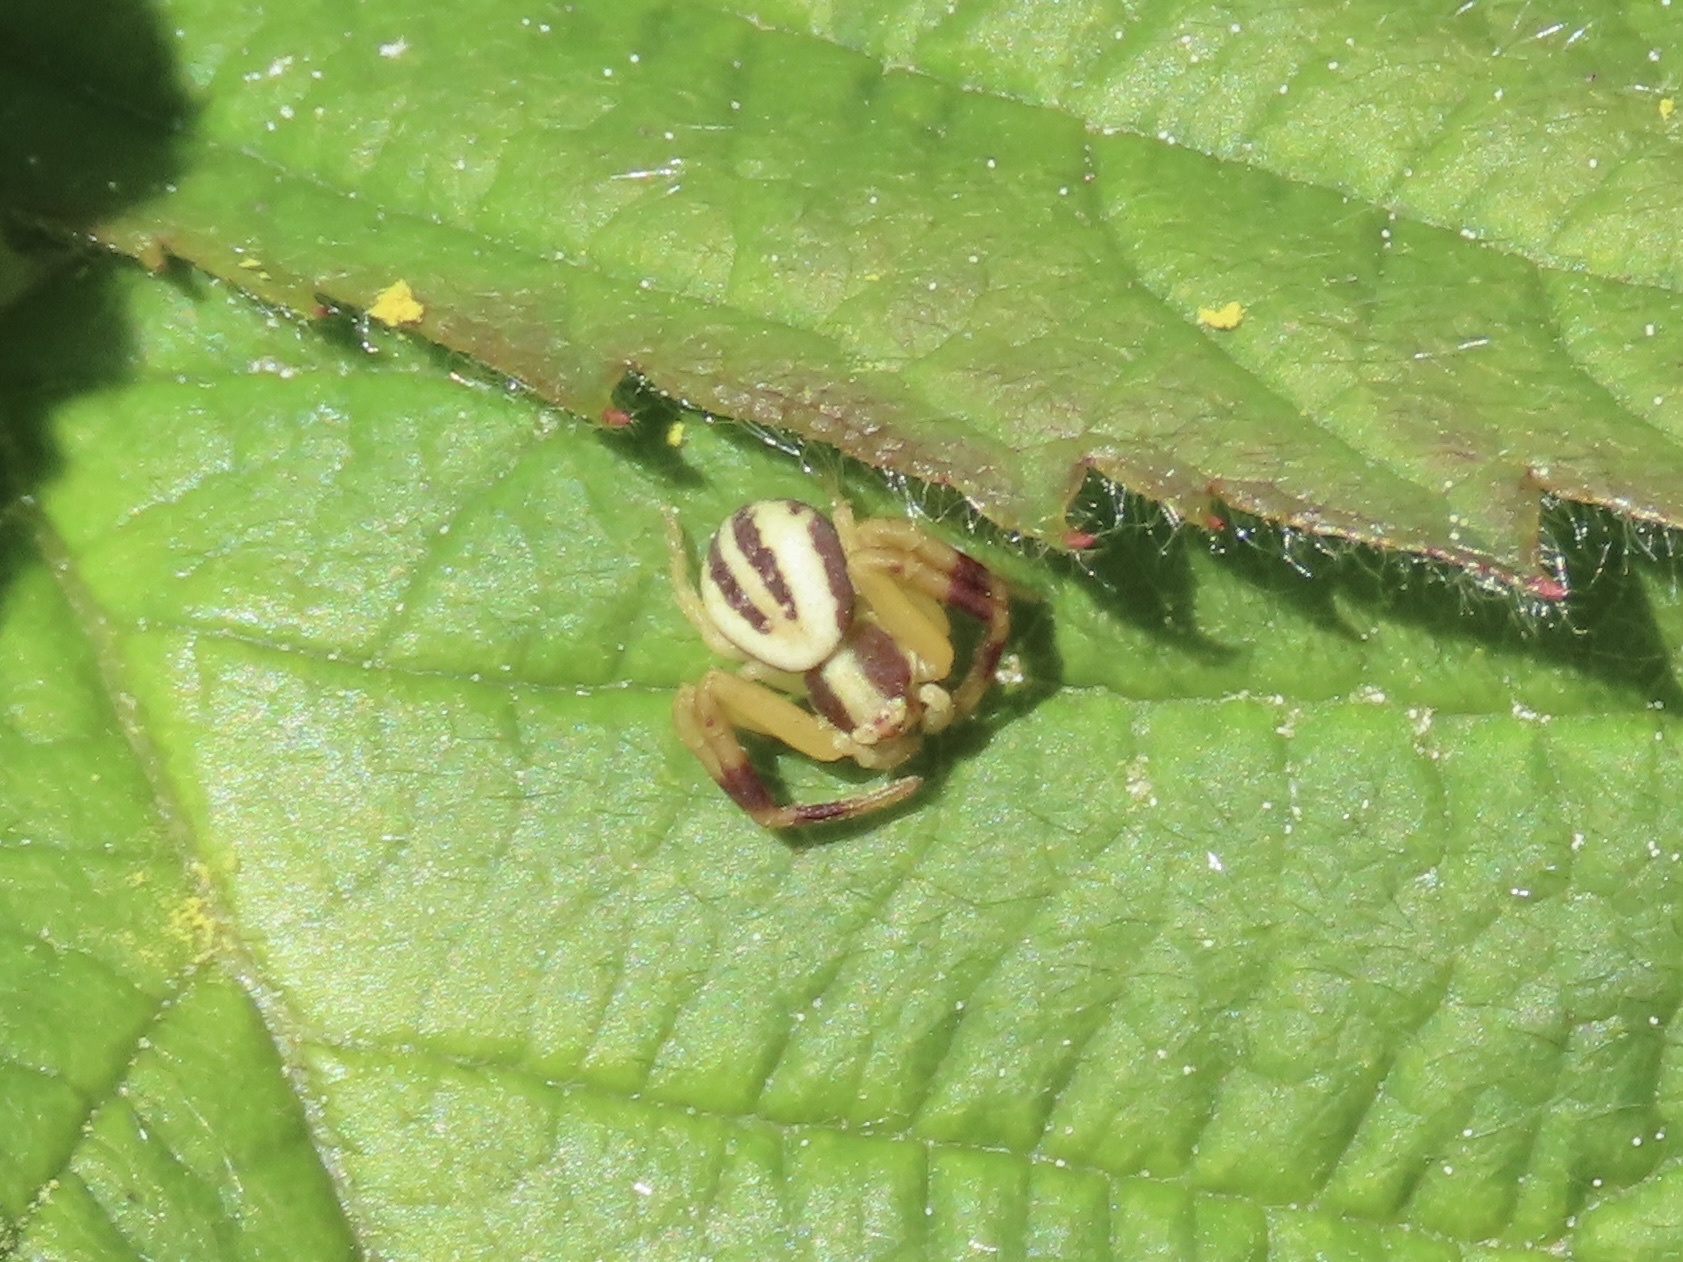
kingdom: Animalia
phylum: Arthropoda
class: Arachnida
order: Araneae
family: Thomisidae
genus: Misumena
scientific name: Misumena vatia
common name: Goldenrod crab spider
